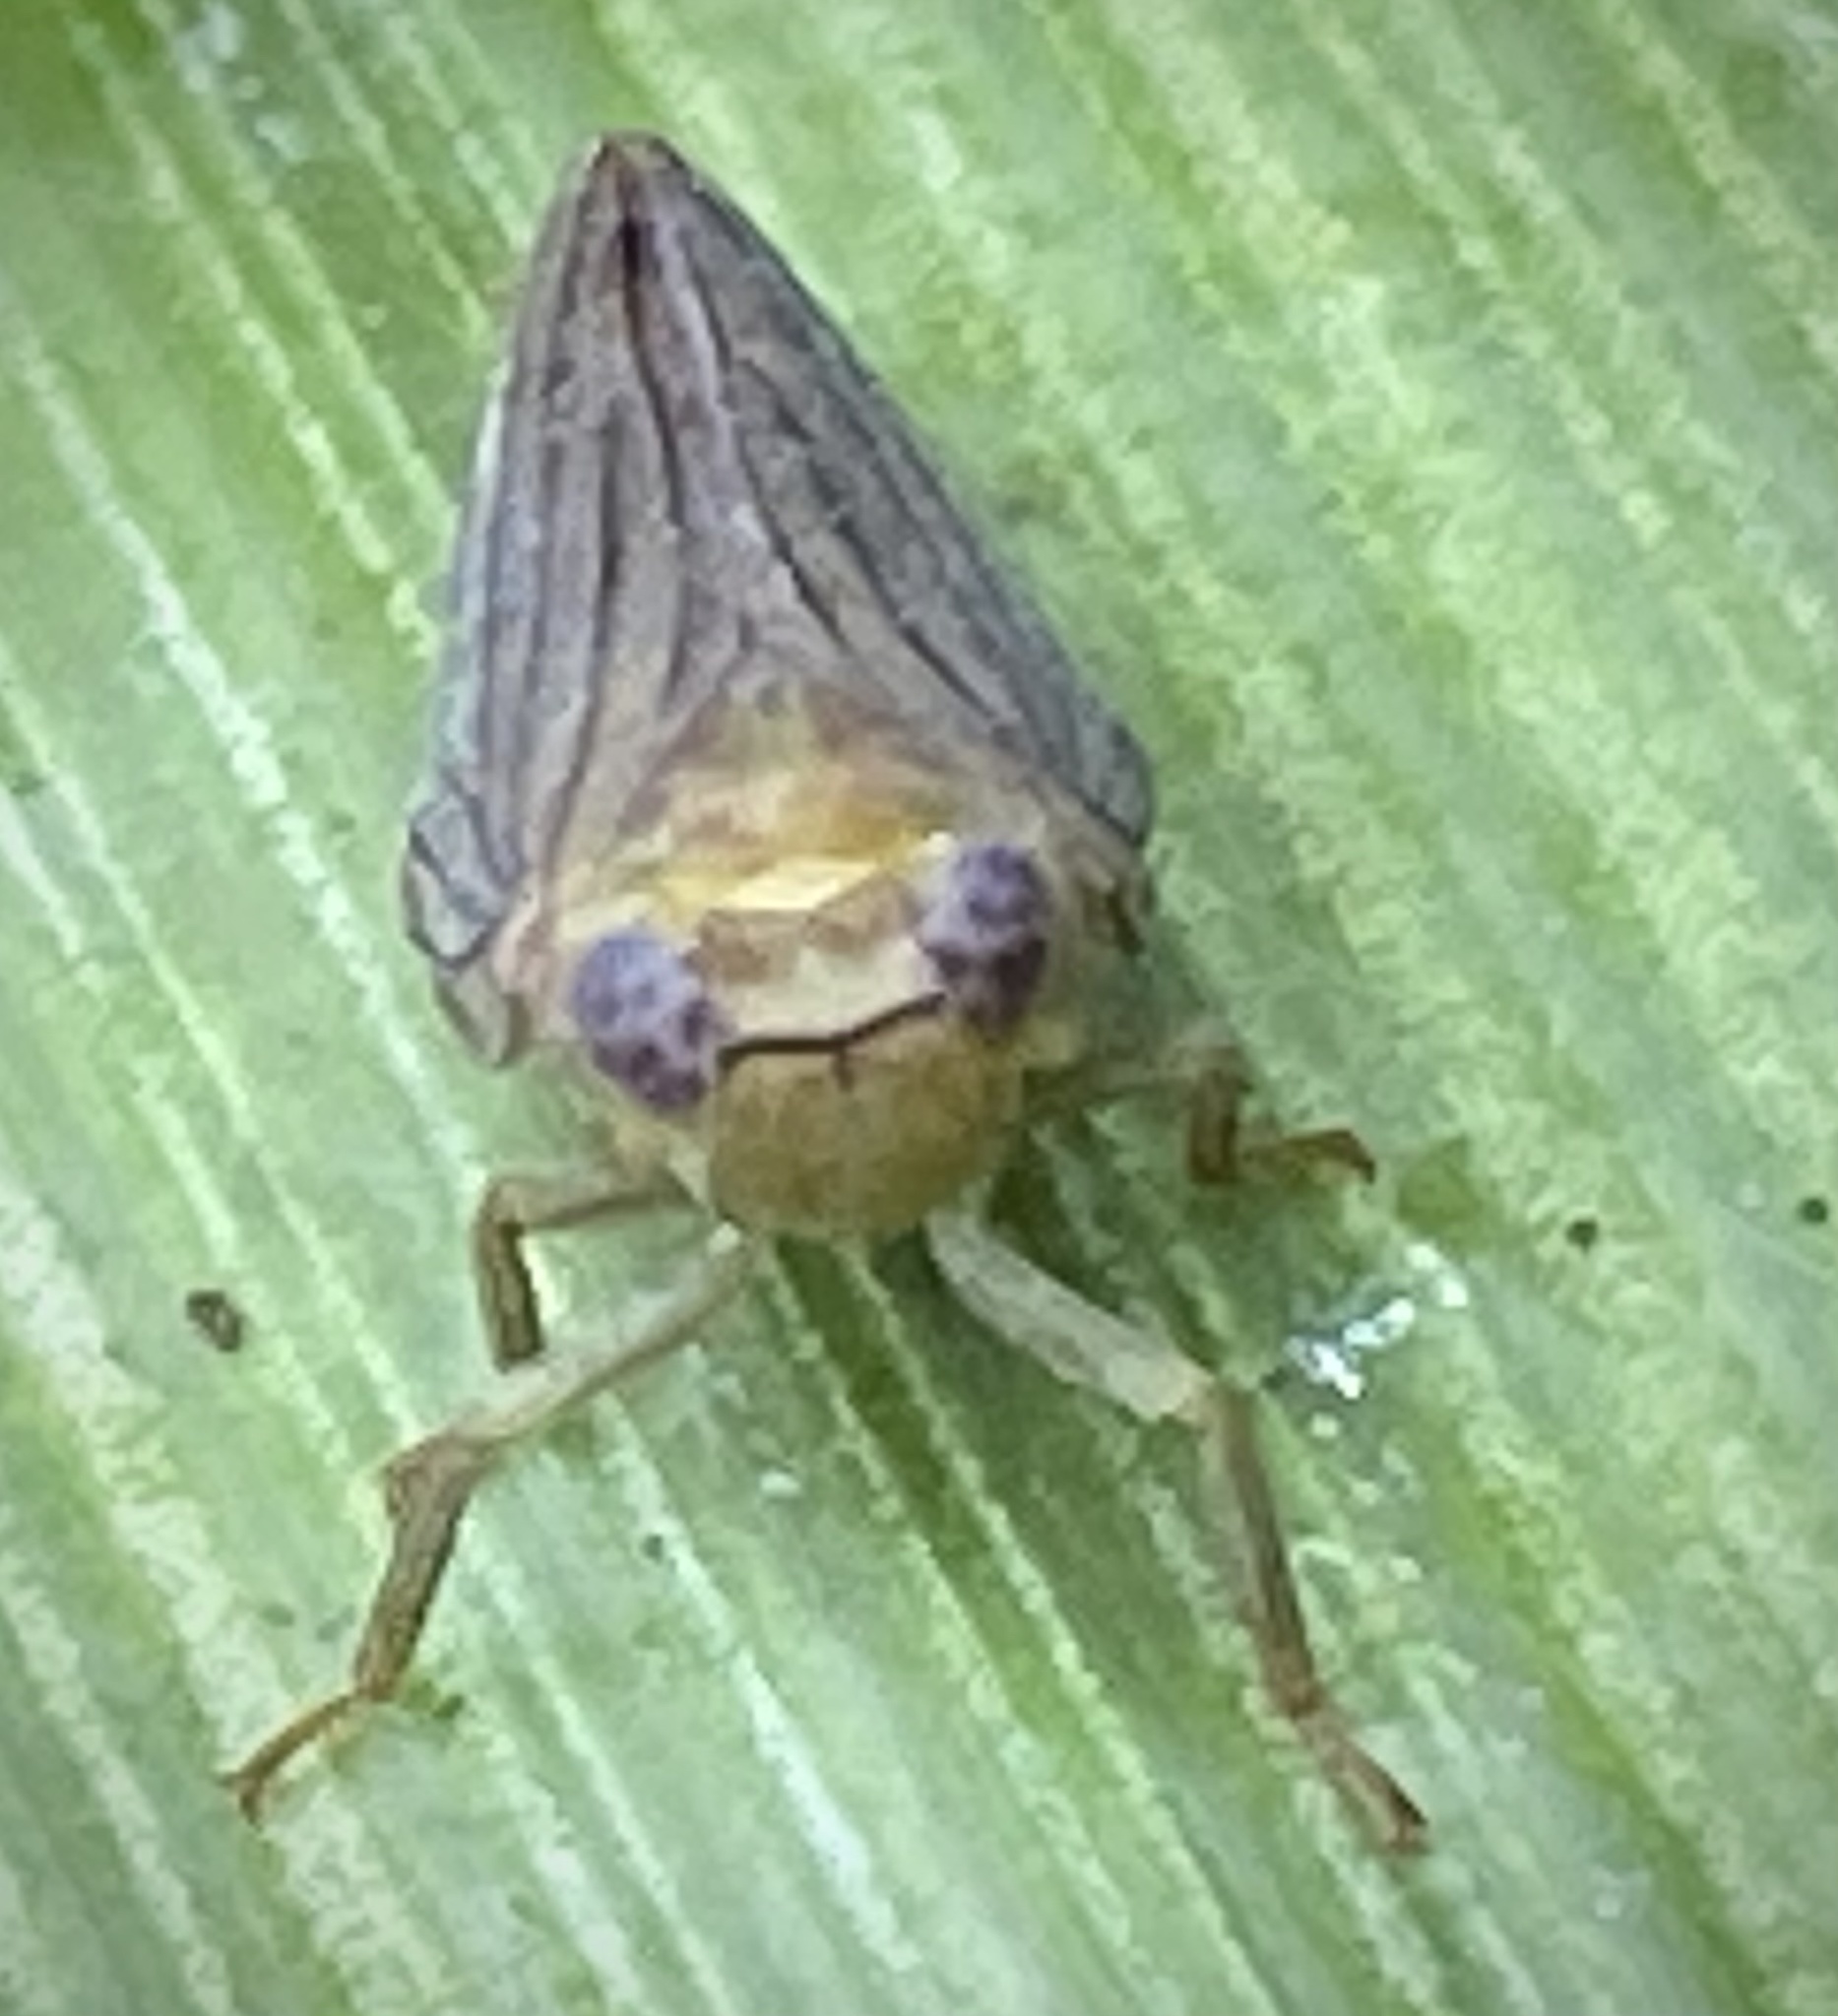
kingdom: Animalia
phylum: Arthropoda
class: Insecta
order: Hemiptera
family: Issidae
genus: Aplos
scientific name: Aplos simplex
